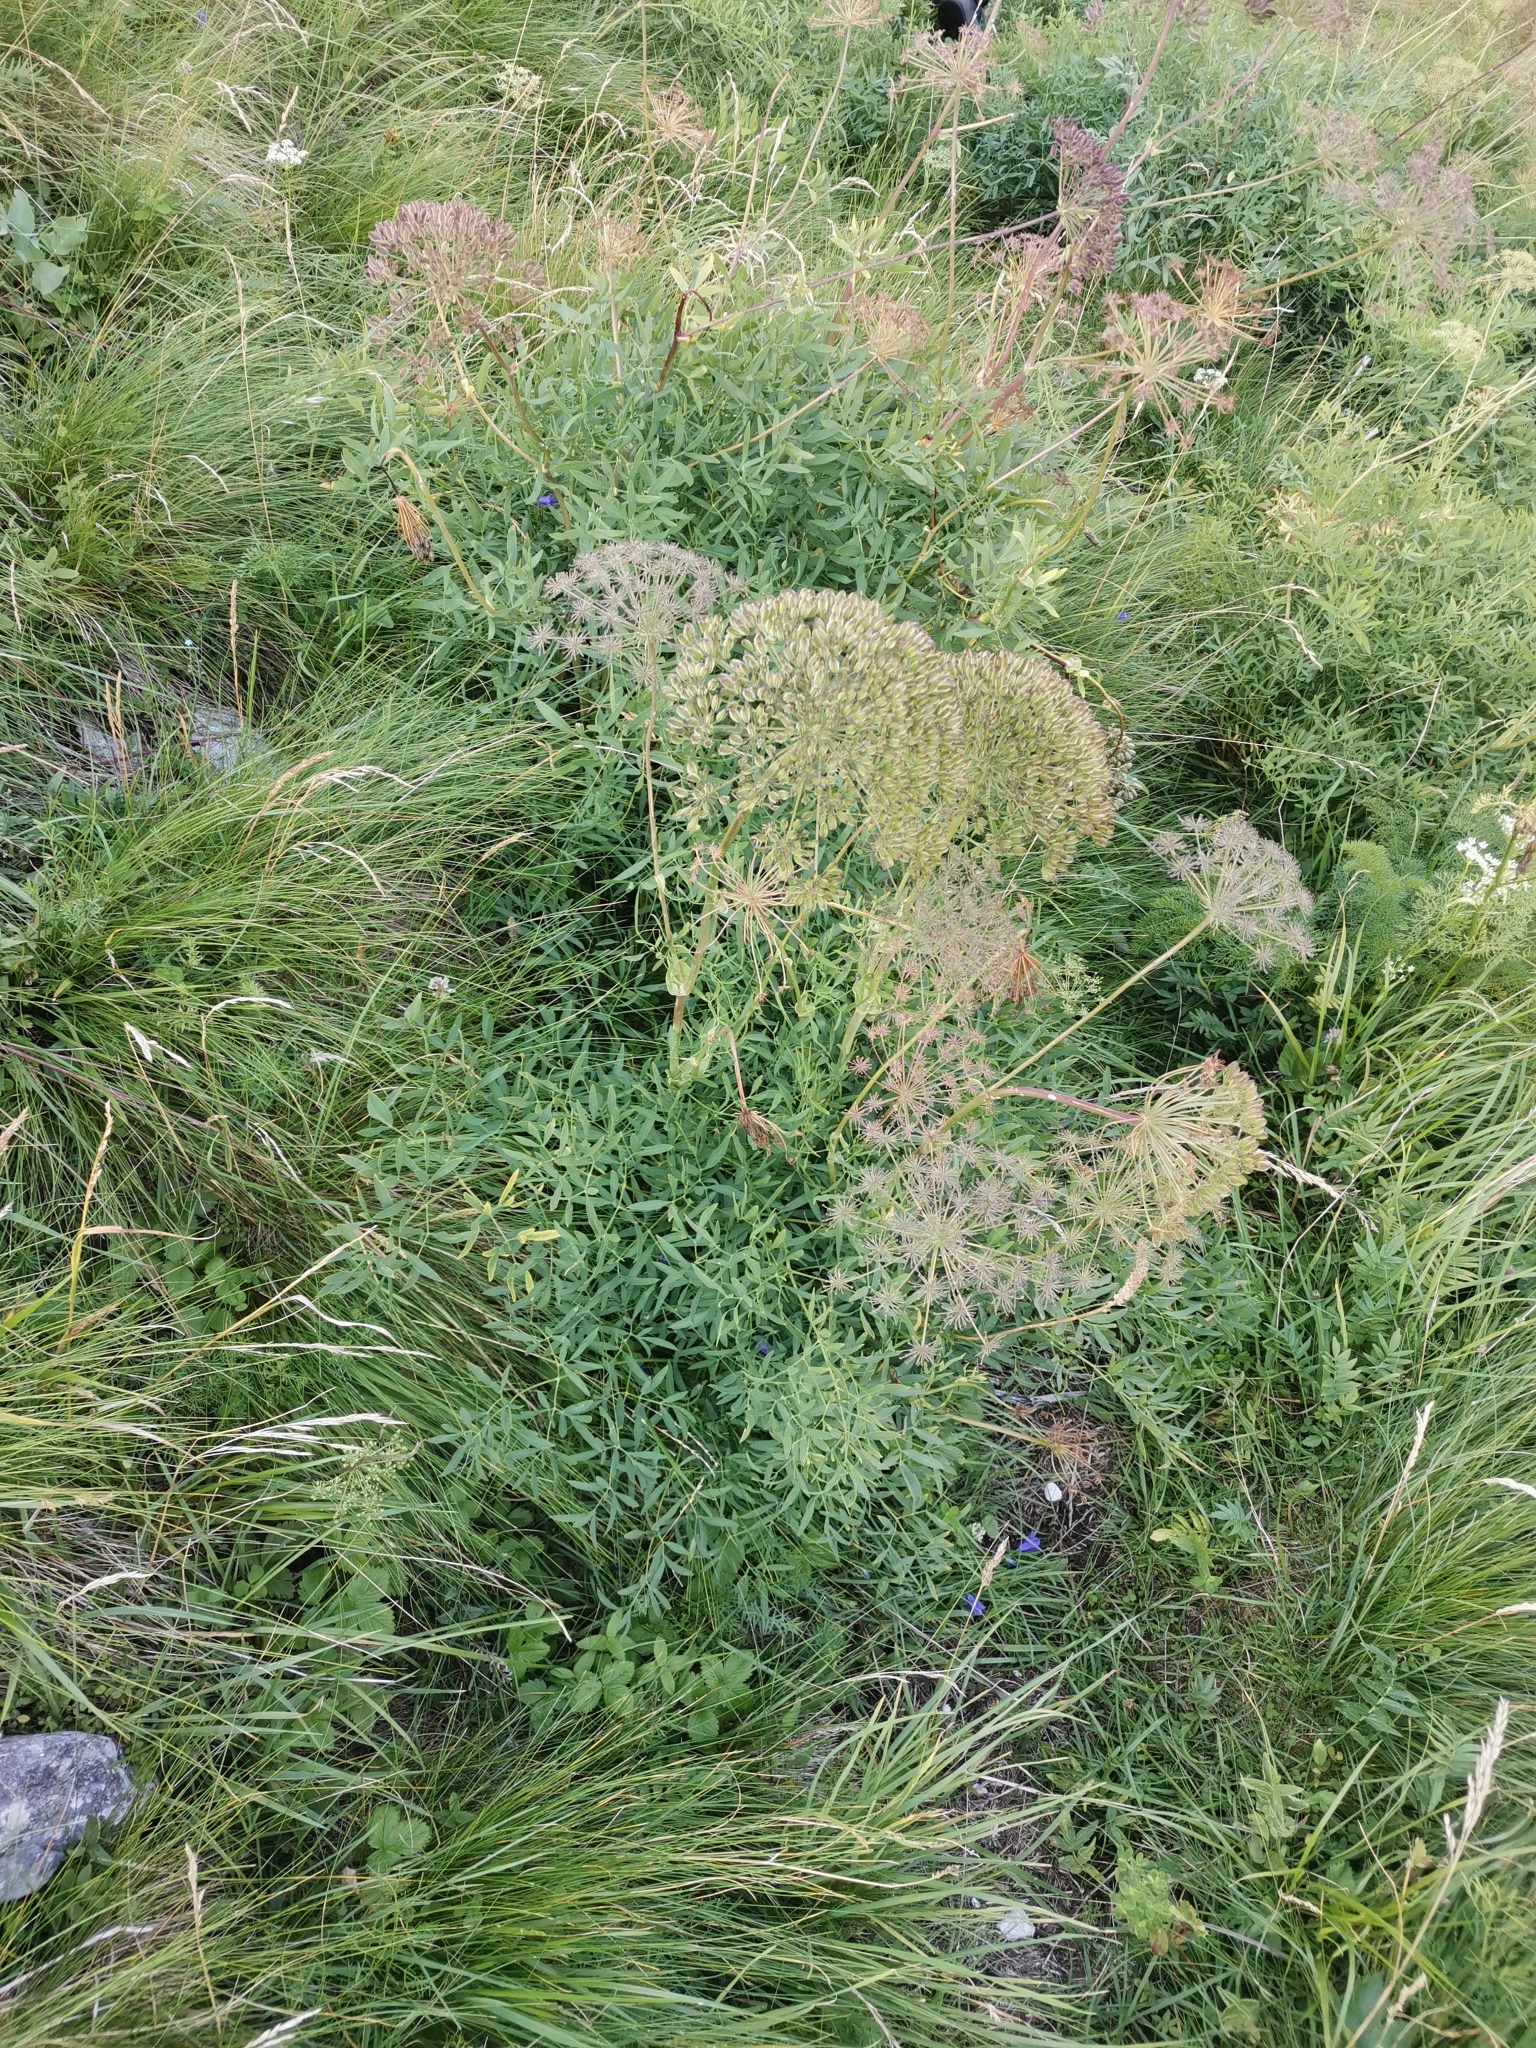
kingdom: Plantae
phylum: Tracheophyta
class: Magnoliopsida
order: Apiales
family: Apiaceae
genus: Siler
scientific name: Siler montanum
